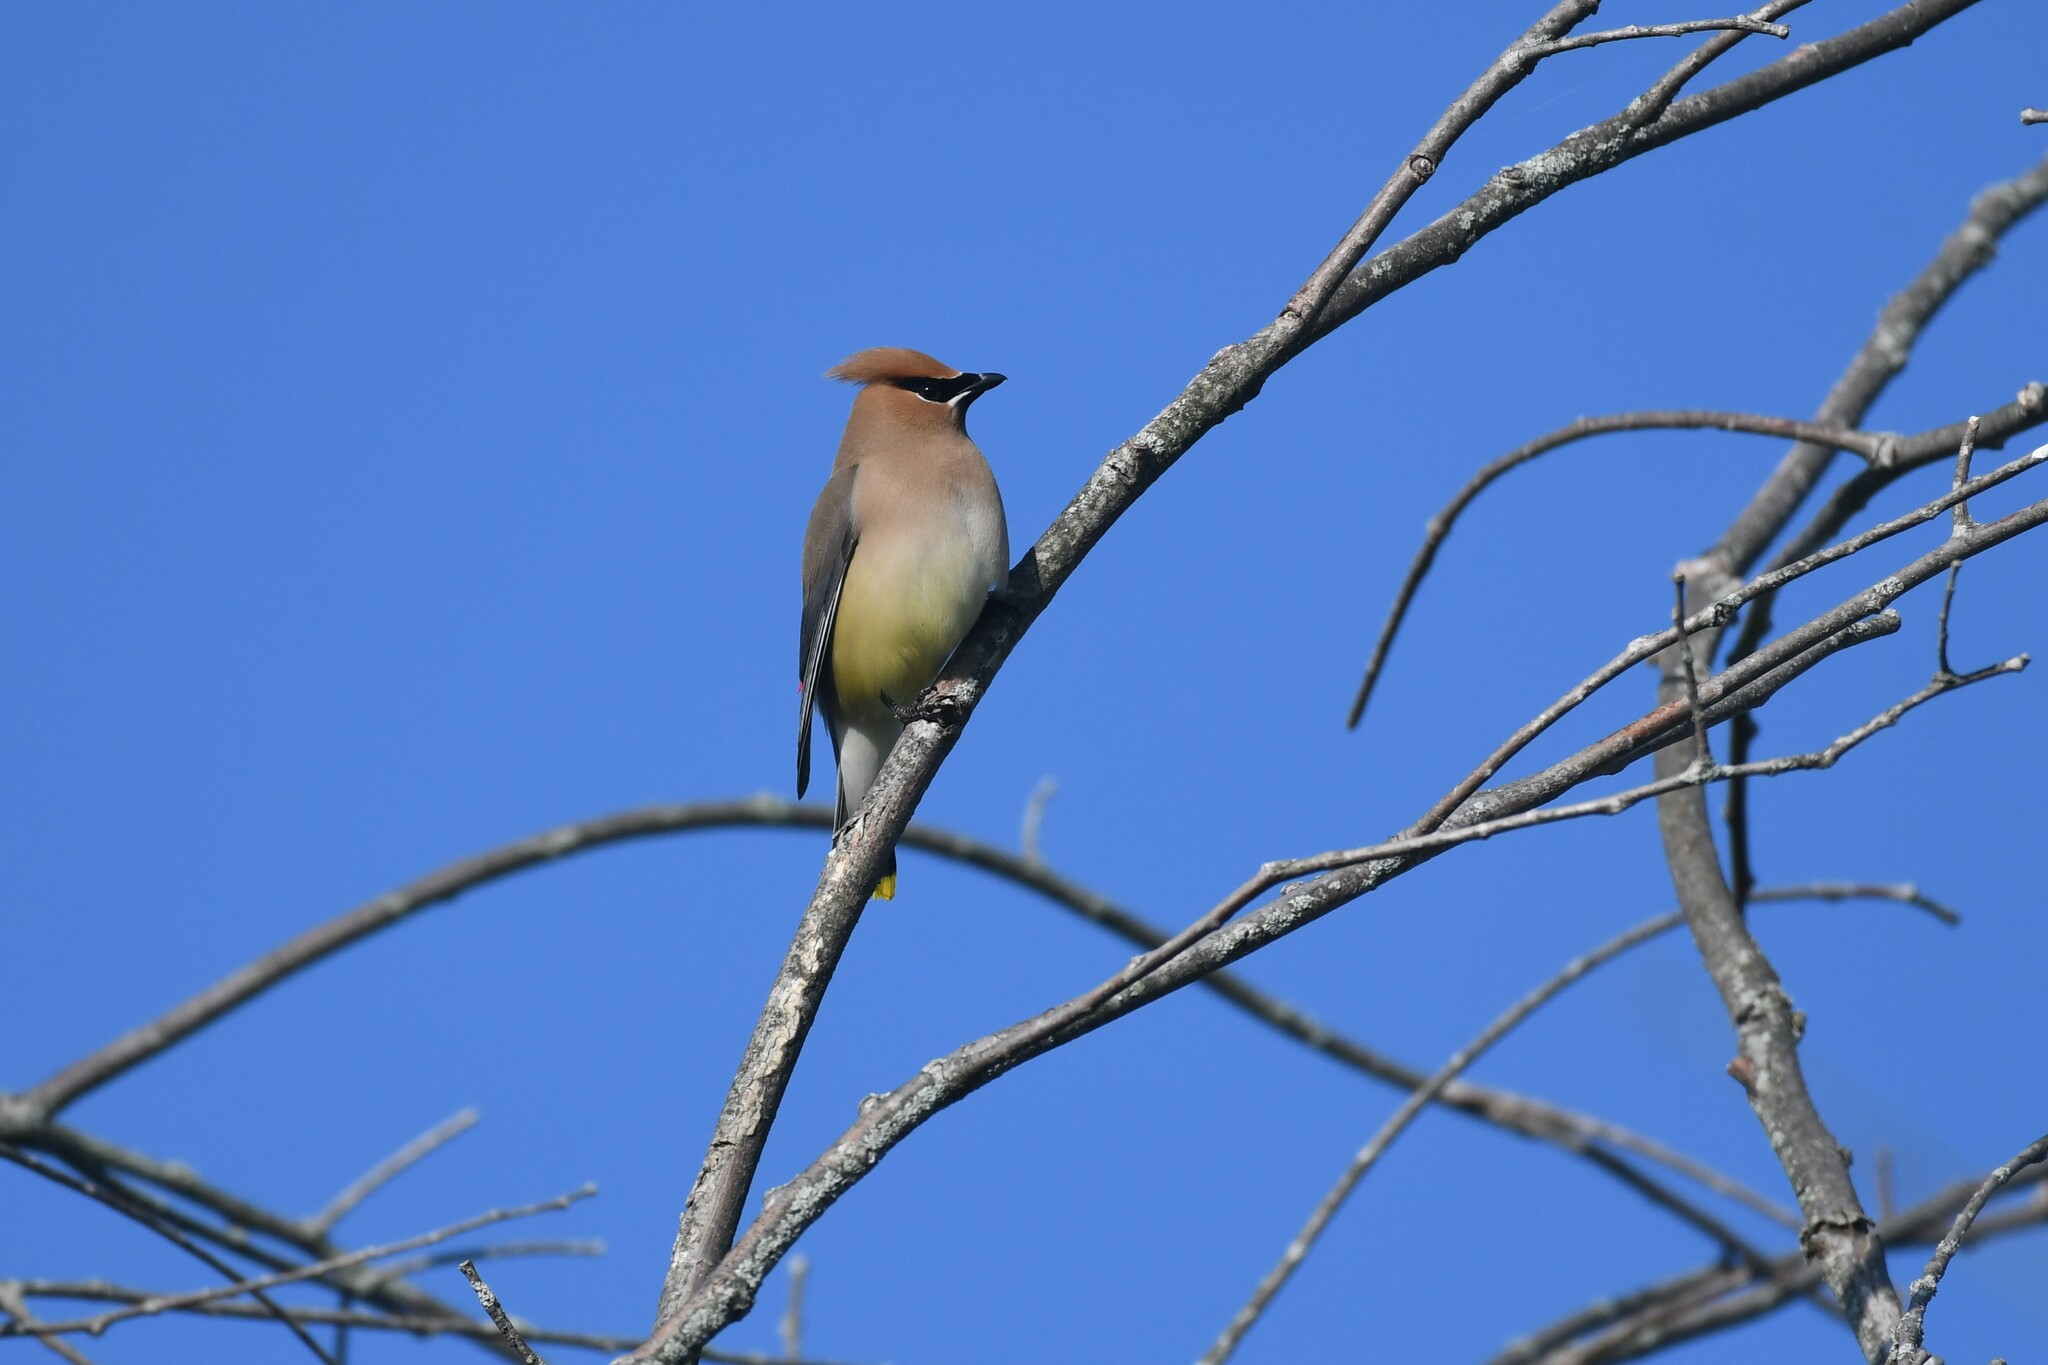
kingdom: Animalia
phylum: Chordata
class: Aves
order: Passeriformes
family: Bombycillidae
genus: Bombycilla
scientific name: Bombycilla cedrorum
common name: Cedar waxwing
